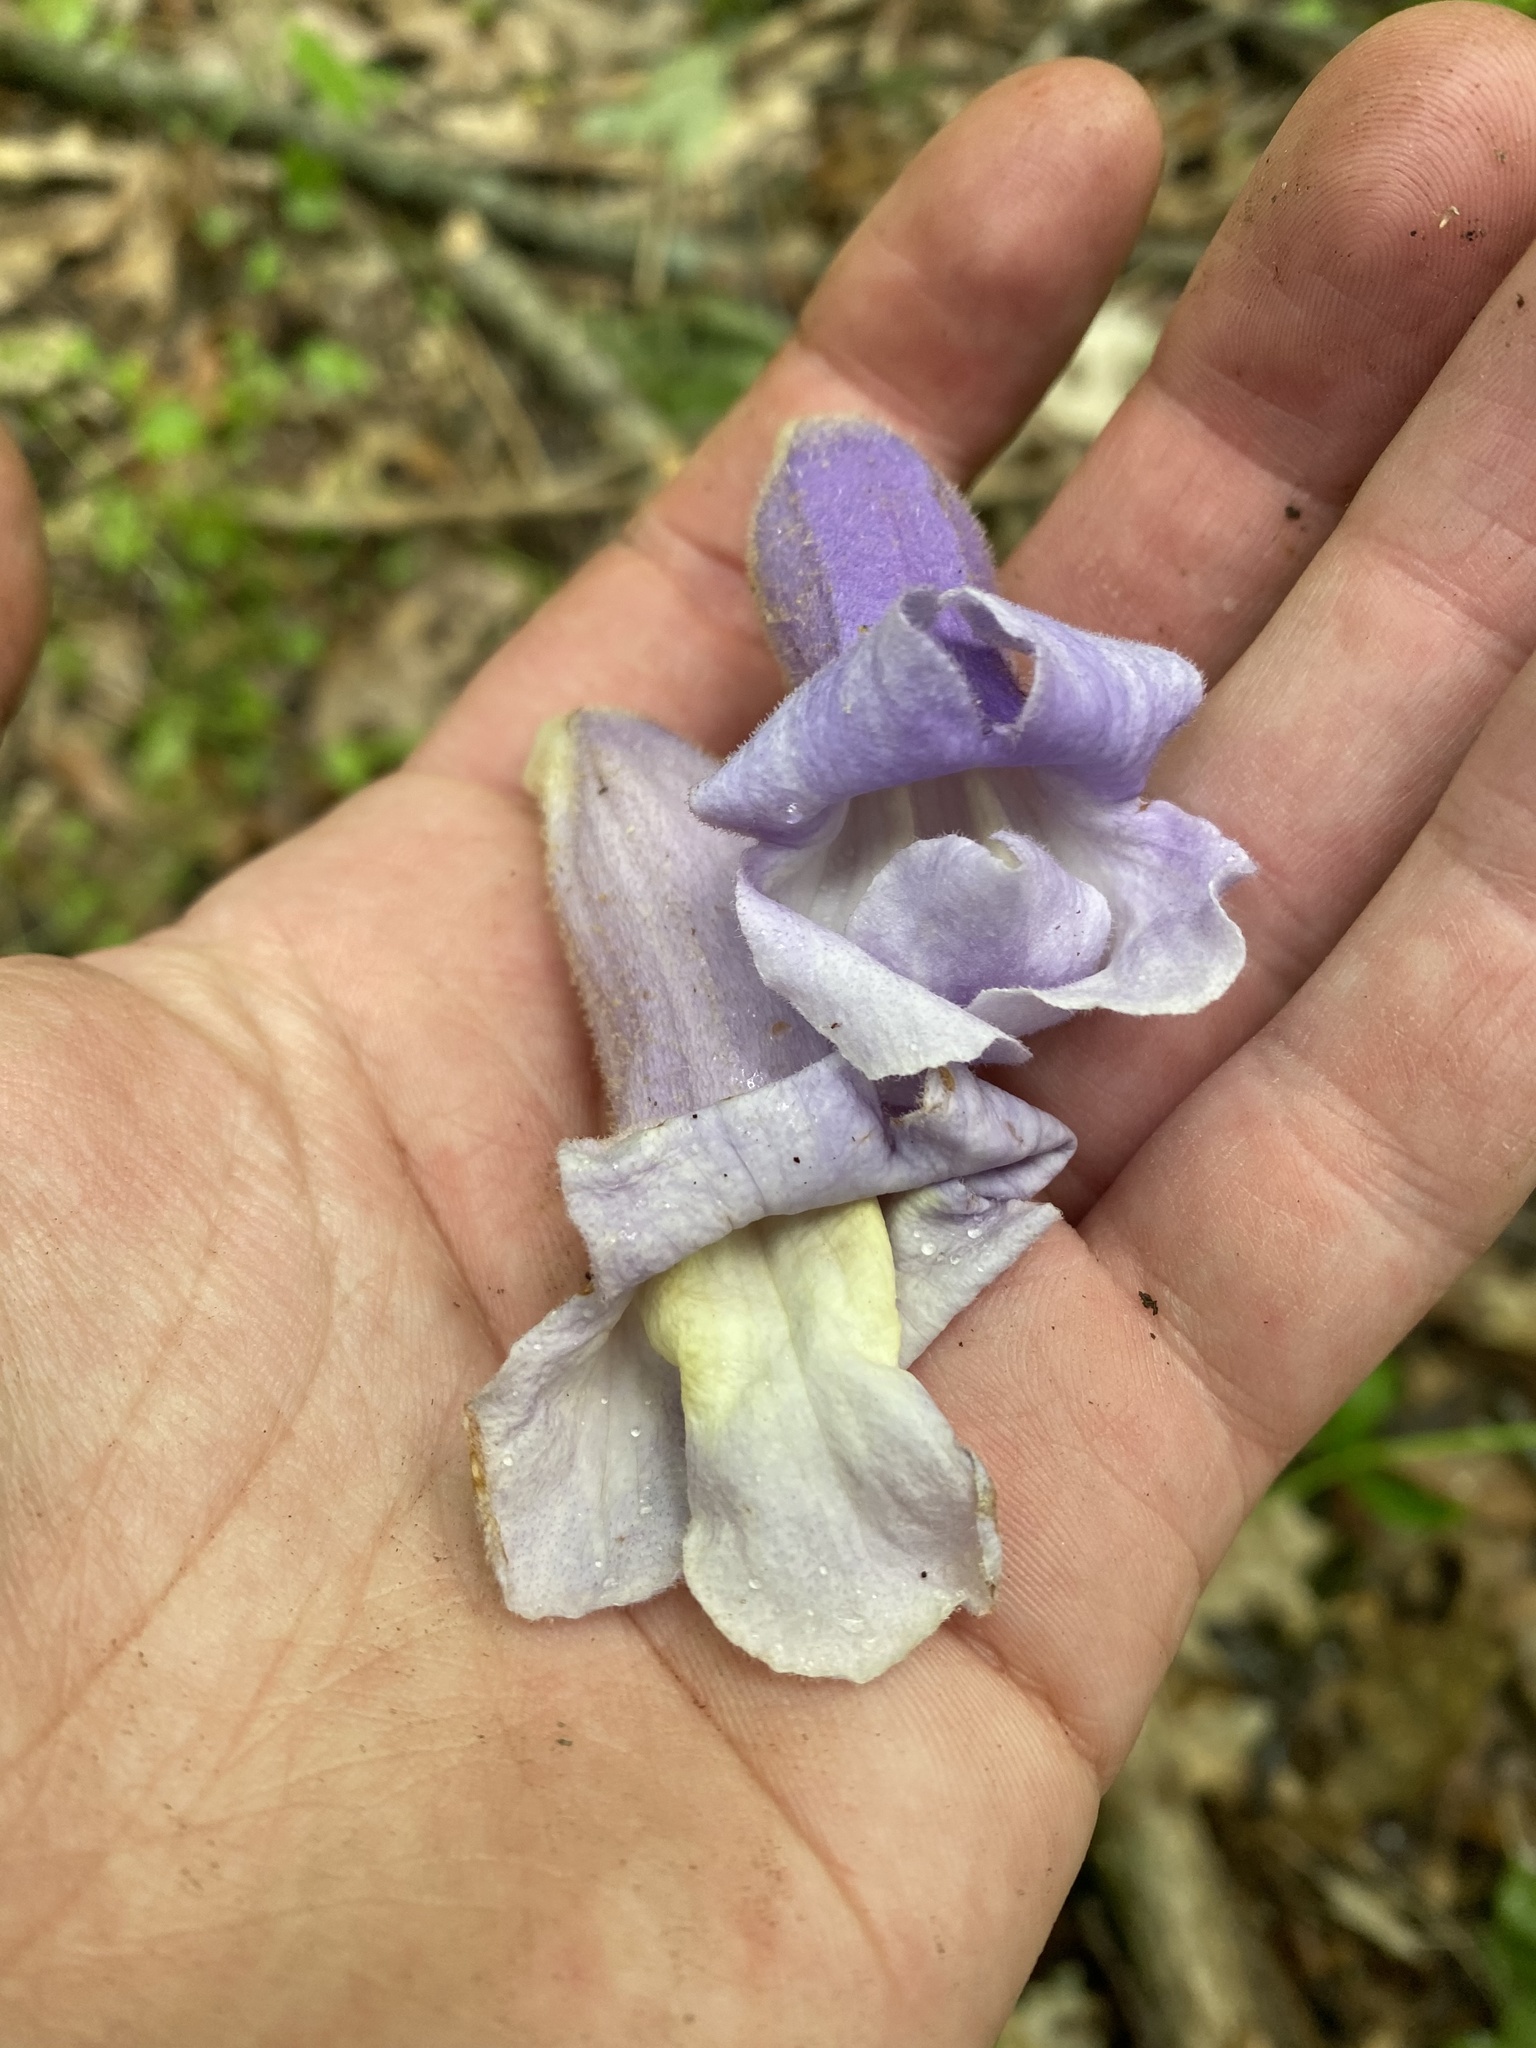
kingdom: Plantae
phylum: Tracheophyta
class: Magnoliopsida
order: Lamiales
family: Paulowniaceae
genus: Paulownia
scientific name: Paulownia tomentosa
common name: Foxglove-tree
